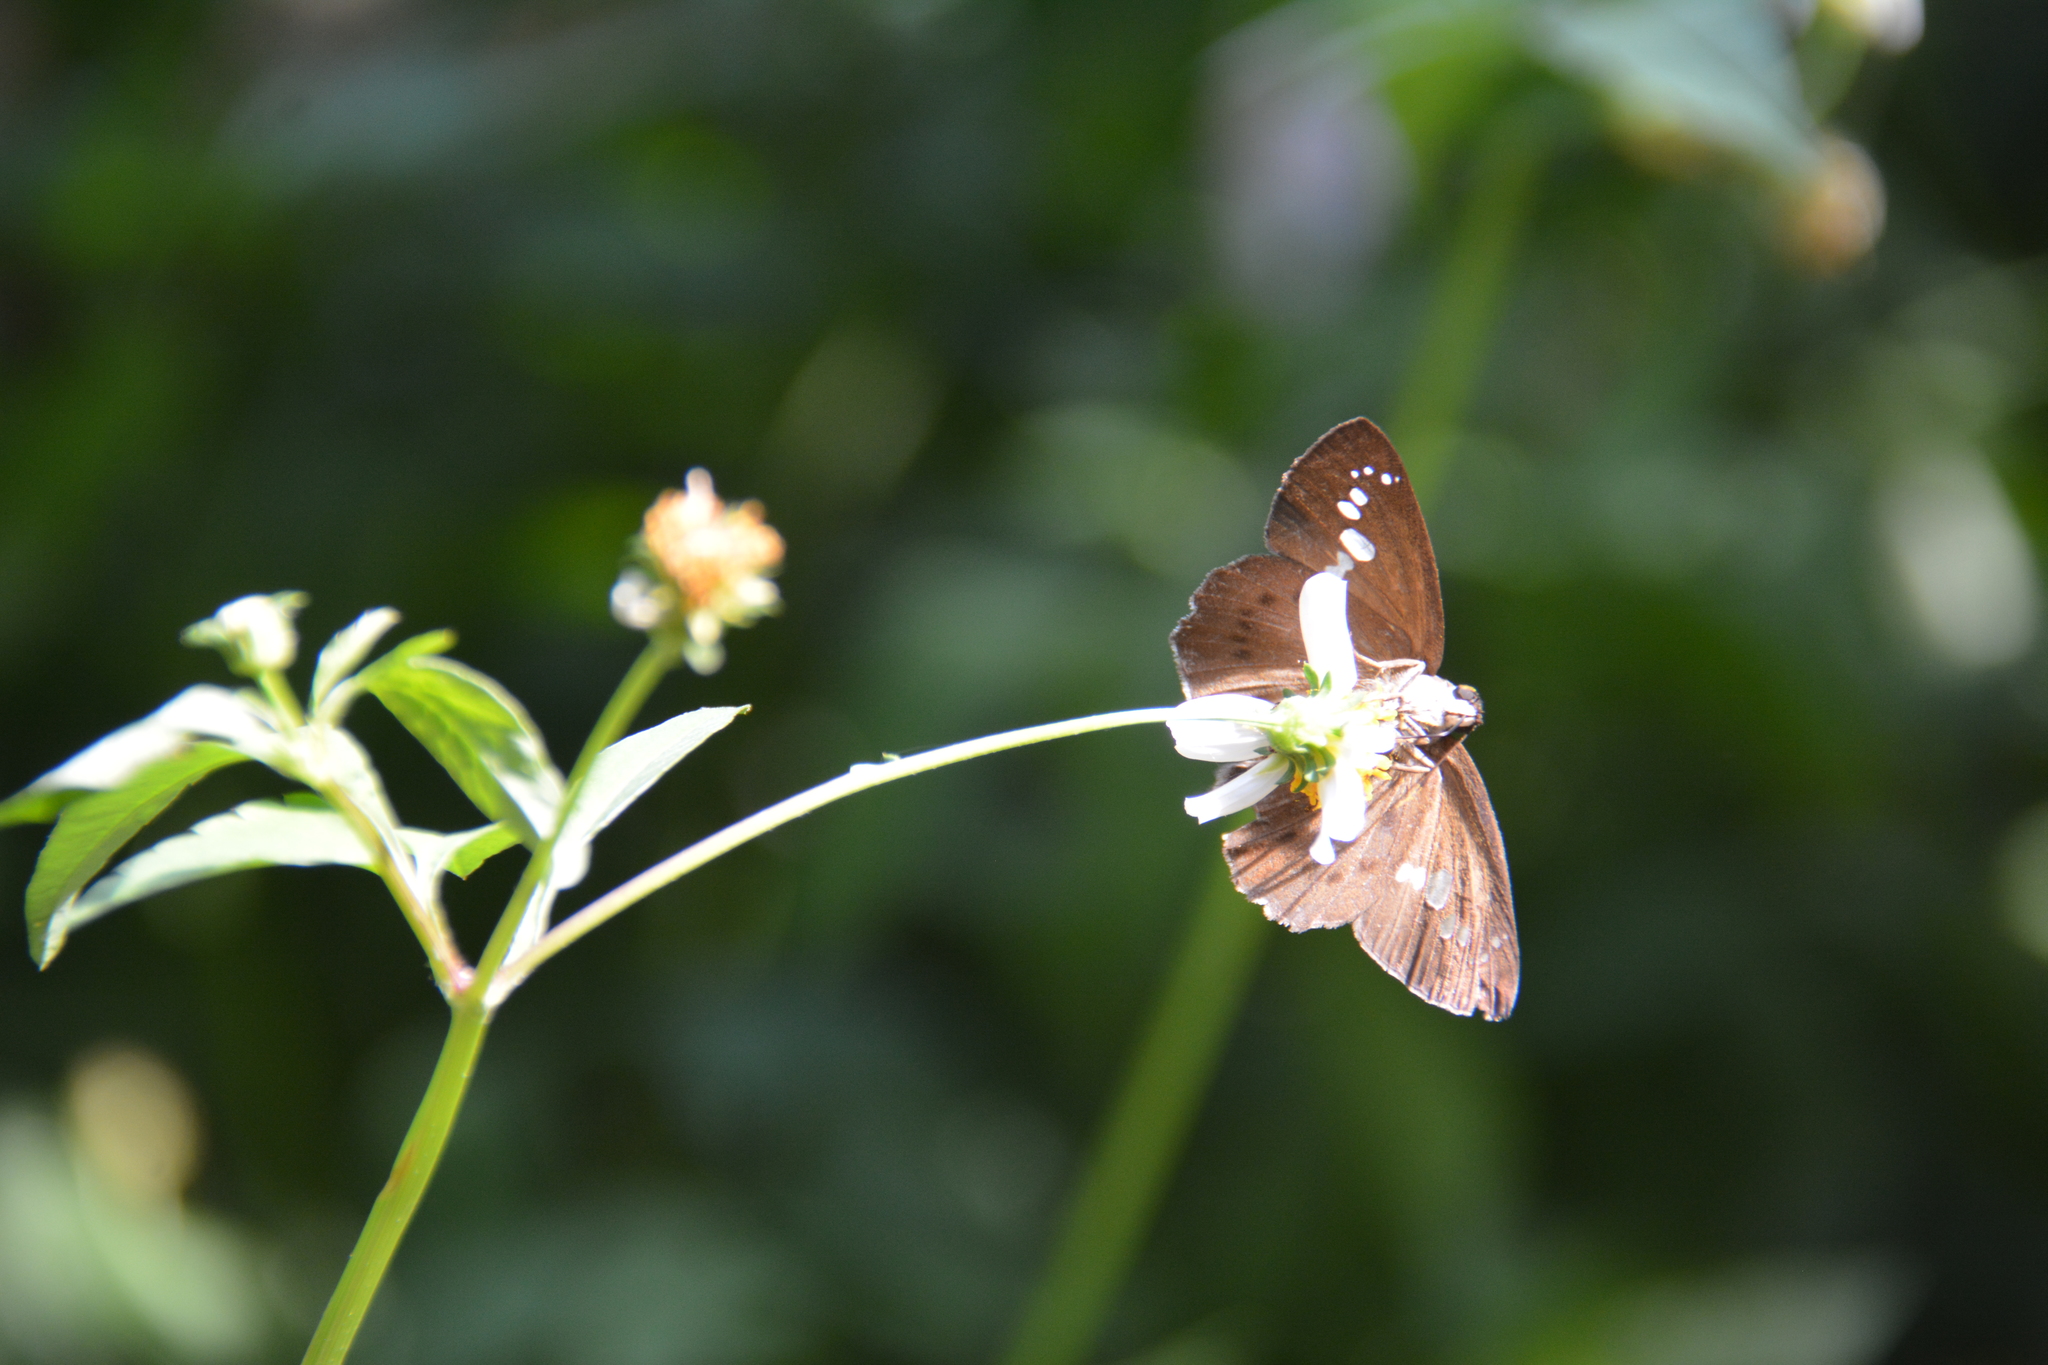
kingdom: Animalia
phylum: Arthropoda
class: Insecta
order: Lepidoptera
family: Hesperiidae
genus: Seseria
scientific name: Seseria formosana
